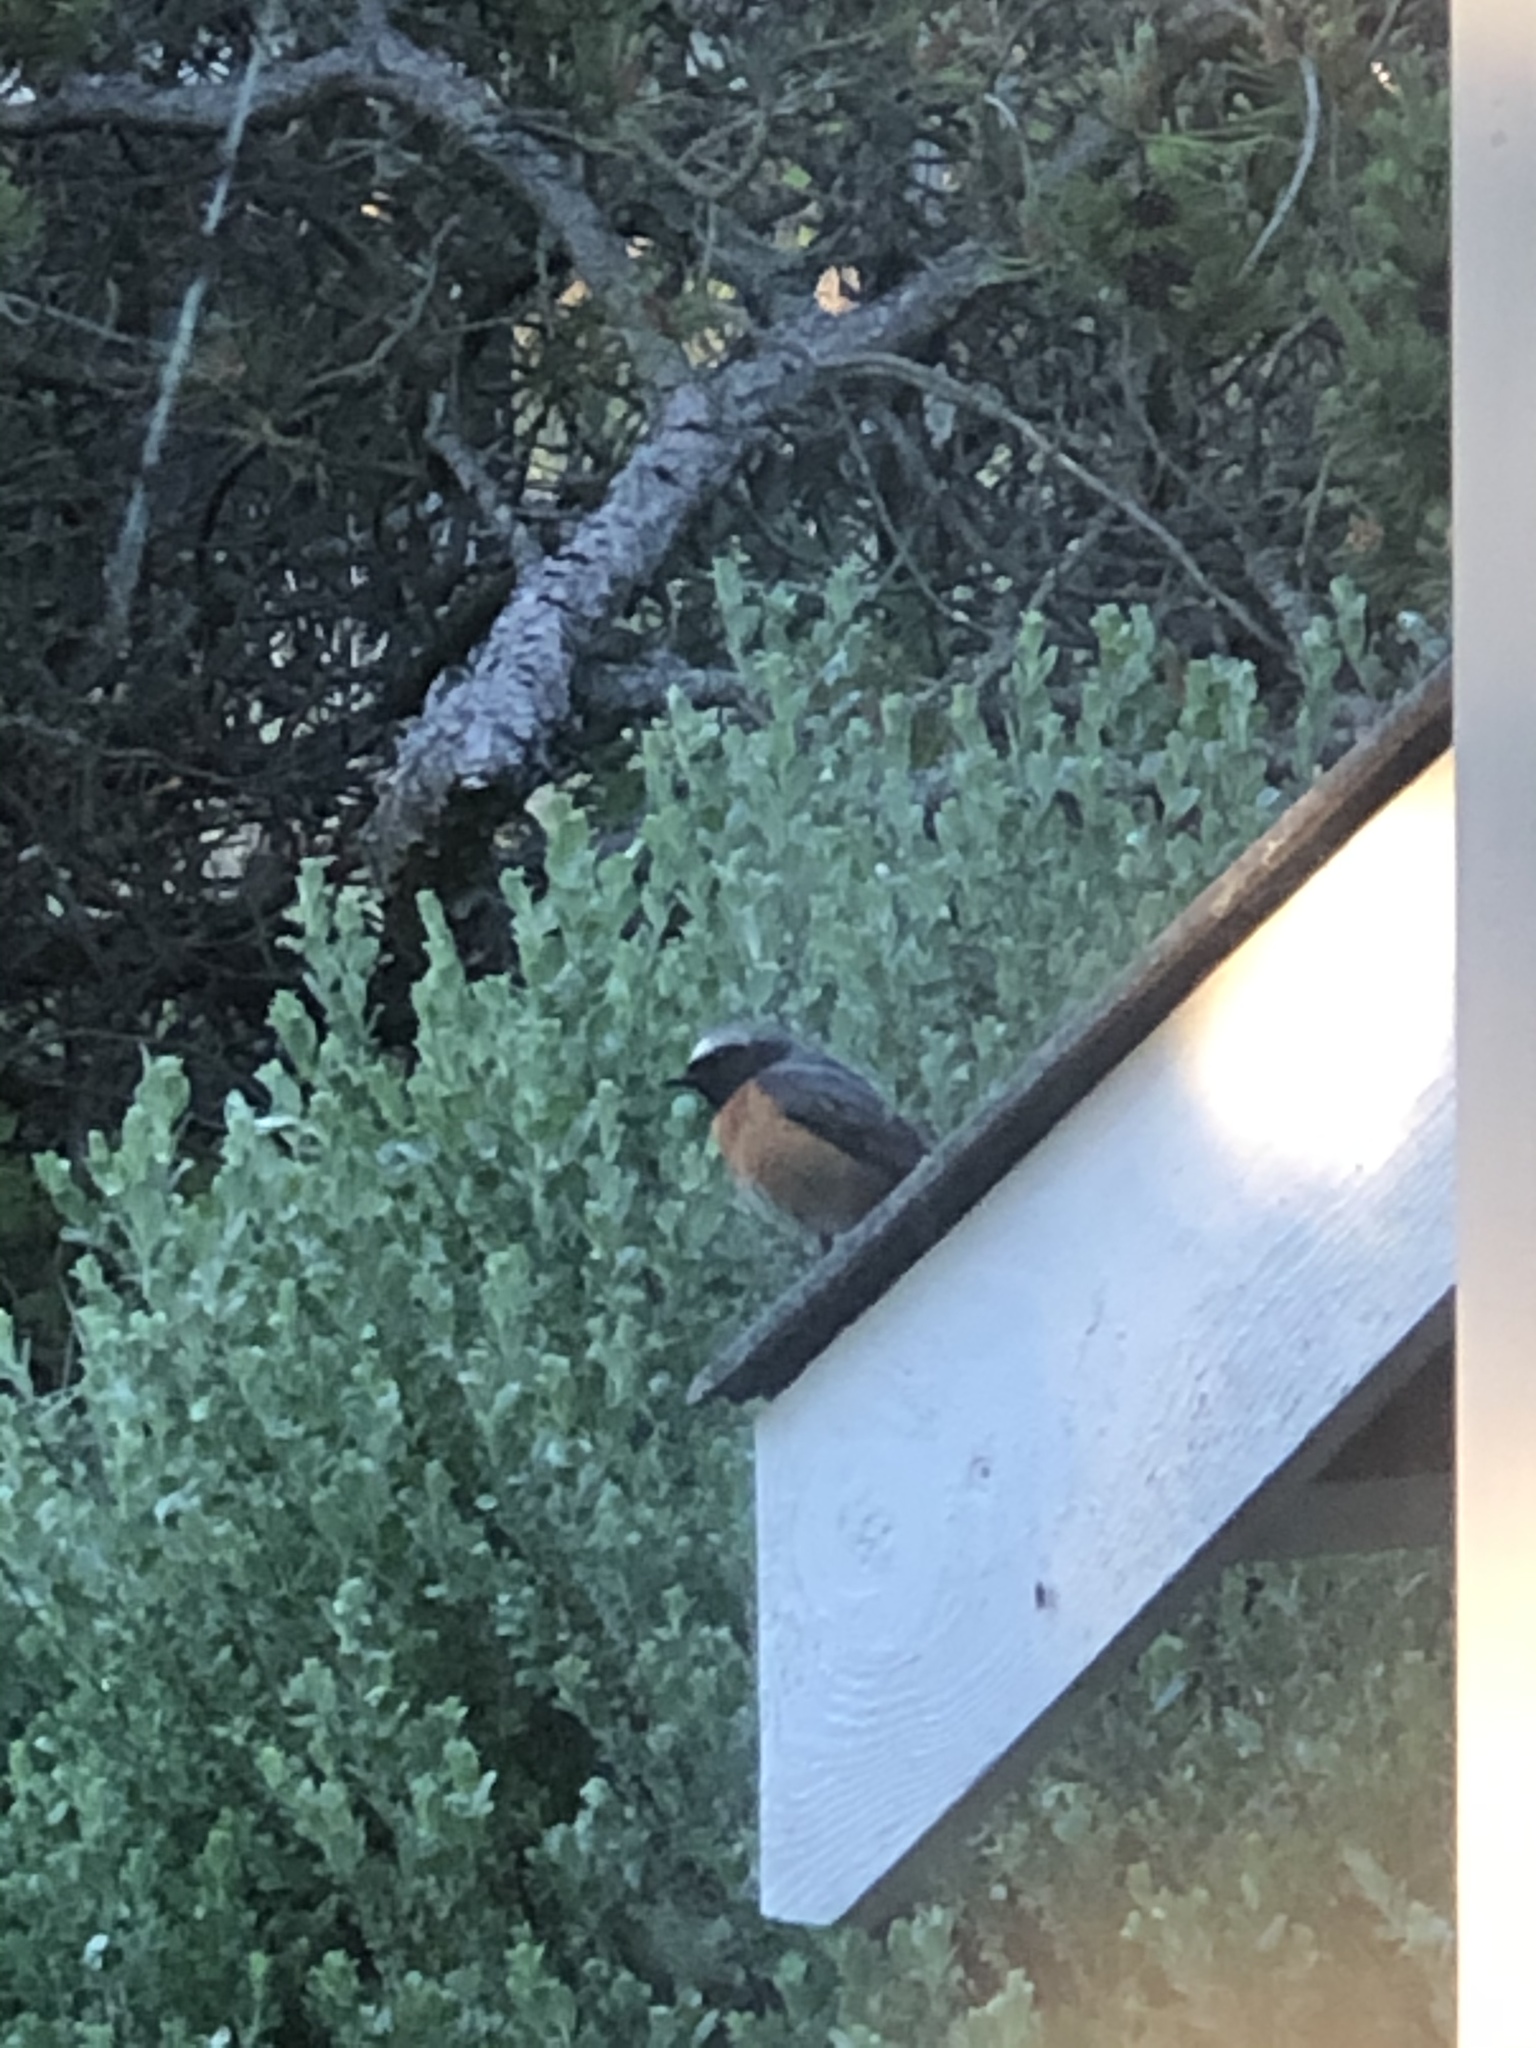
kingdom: Animalia
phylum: Chordata
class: Aves
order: Passeriformes
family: Muscicapidae
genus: Phoenicurus
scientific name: Phoenicurus phoenicurus
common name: Common redstart
